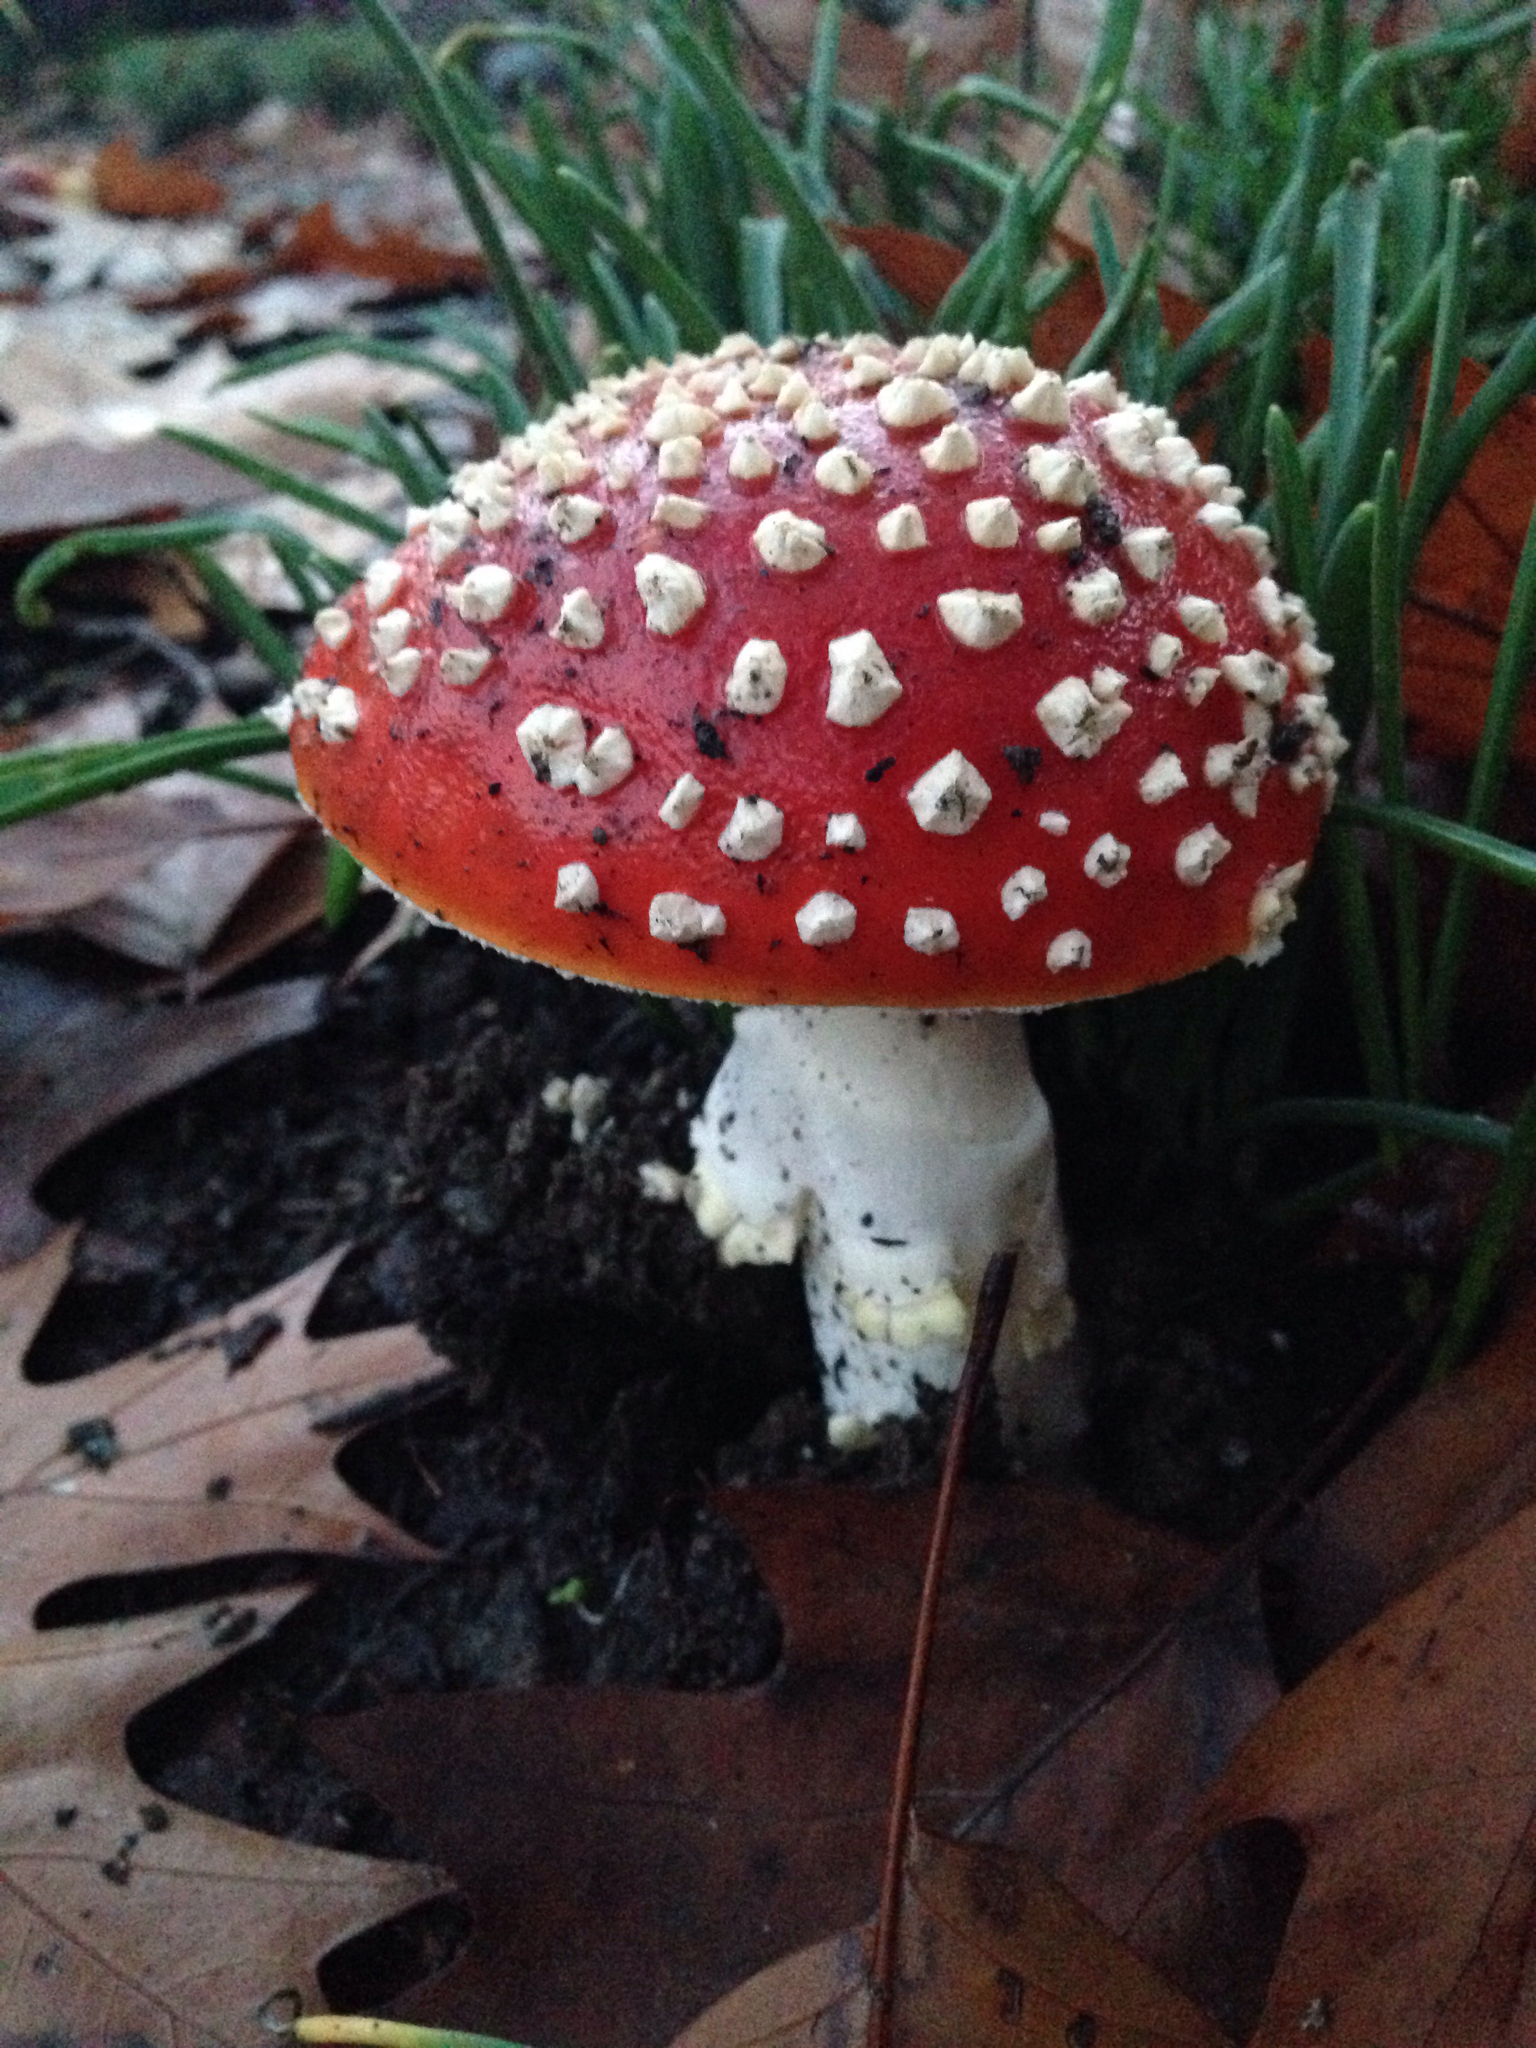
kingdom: Fungi
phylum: Basidiomycota
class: Agaricomycetes
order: Agaricales
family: Amanitaceae
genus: Amanita
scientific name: Amanita muscaria
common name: Fly agaric
